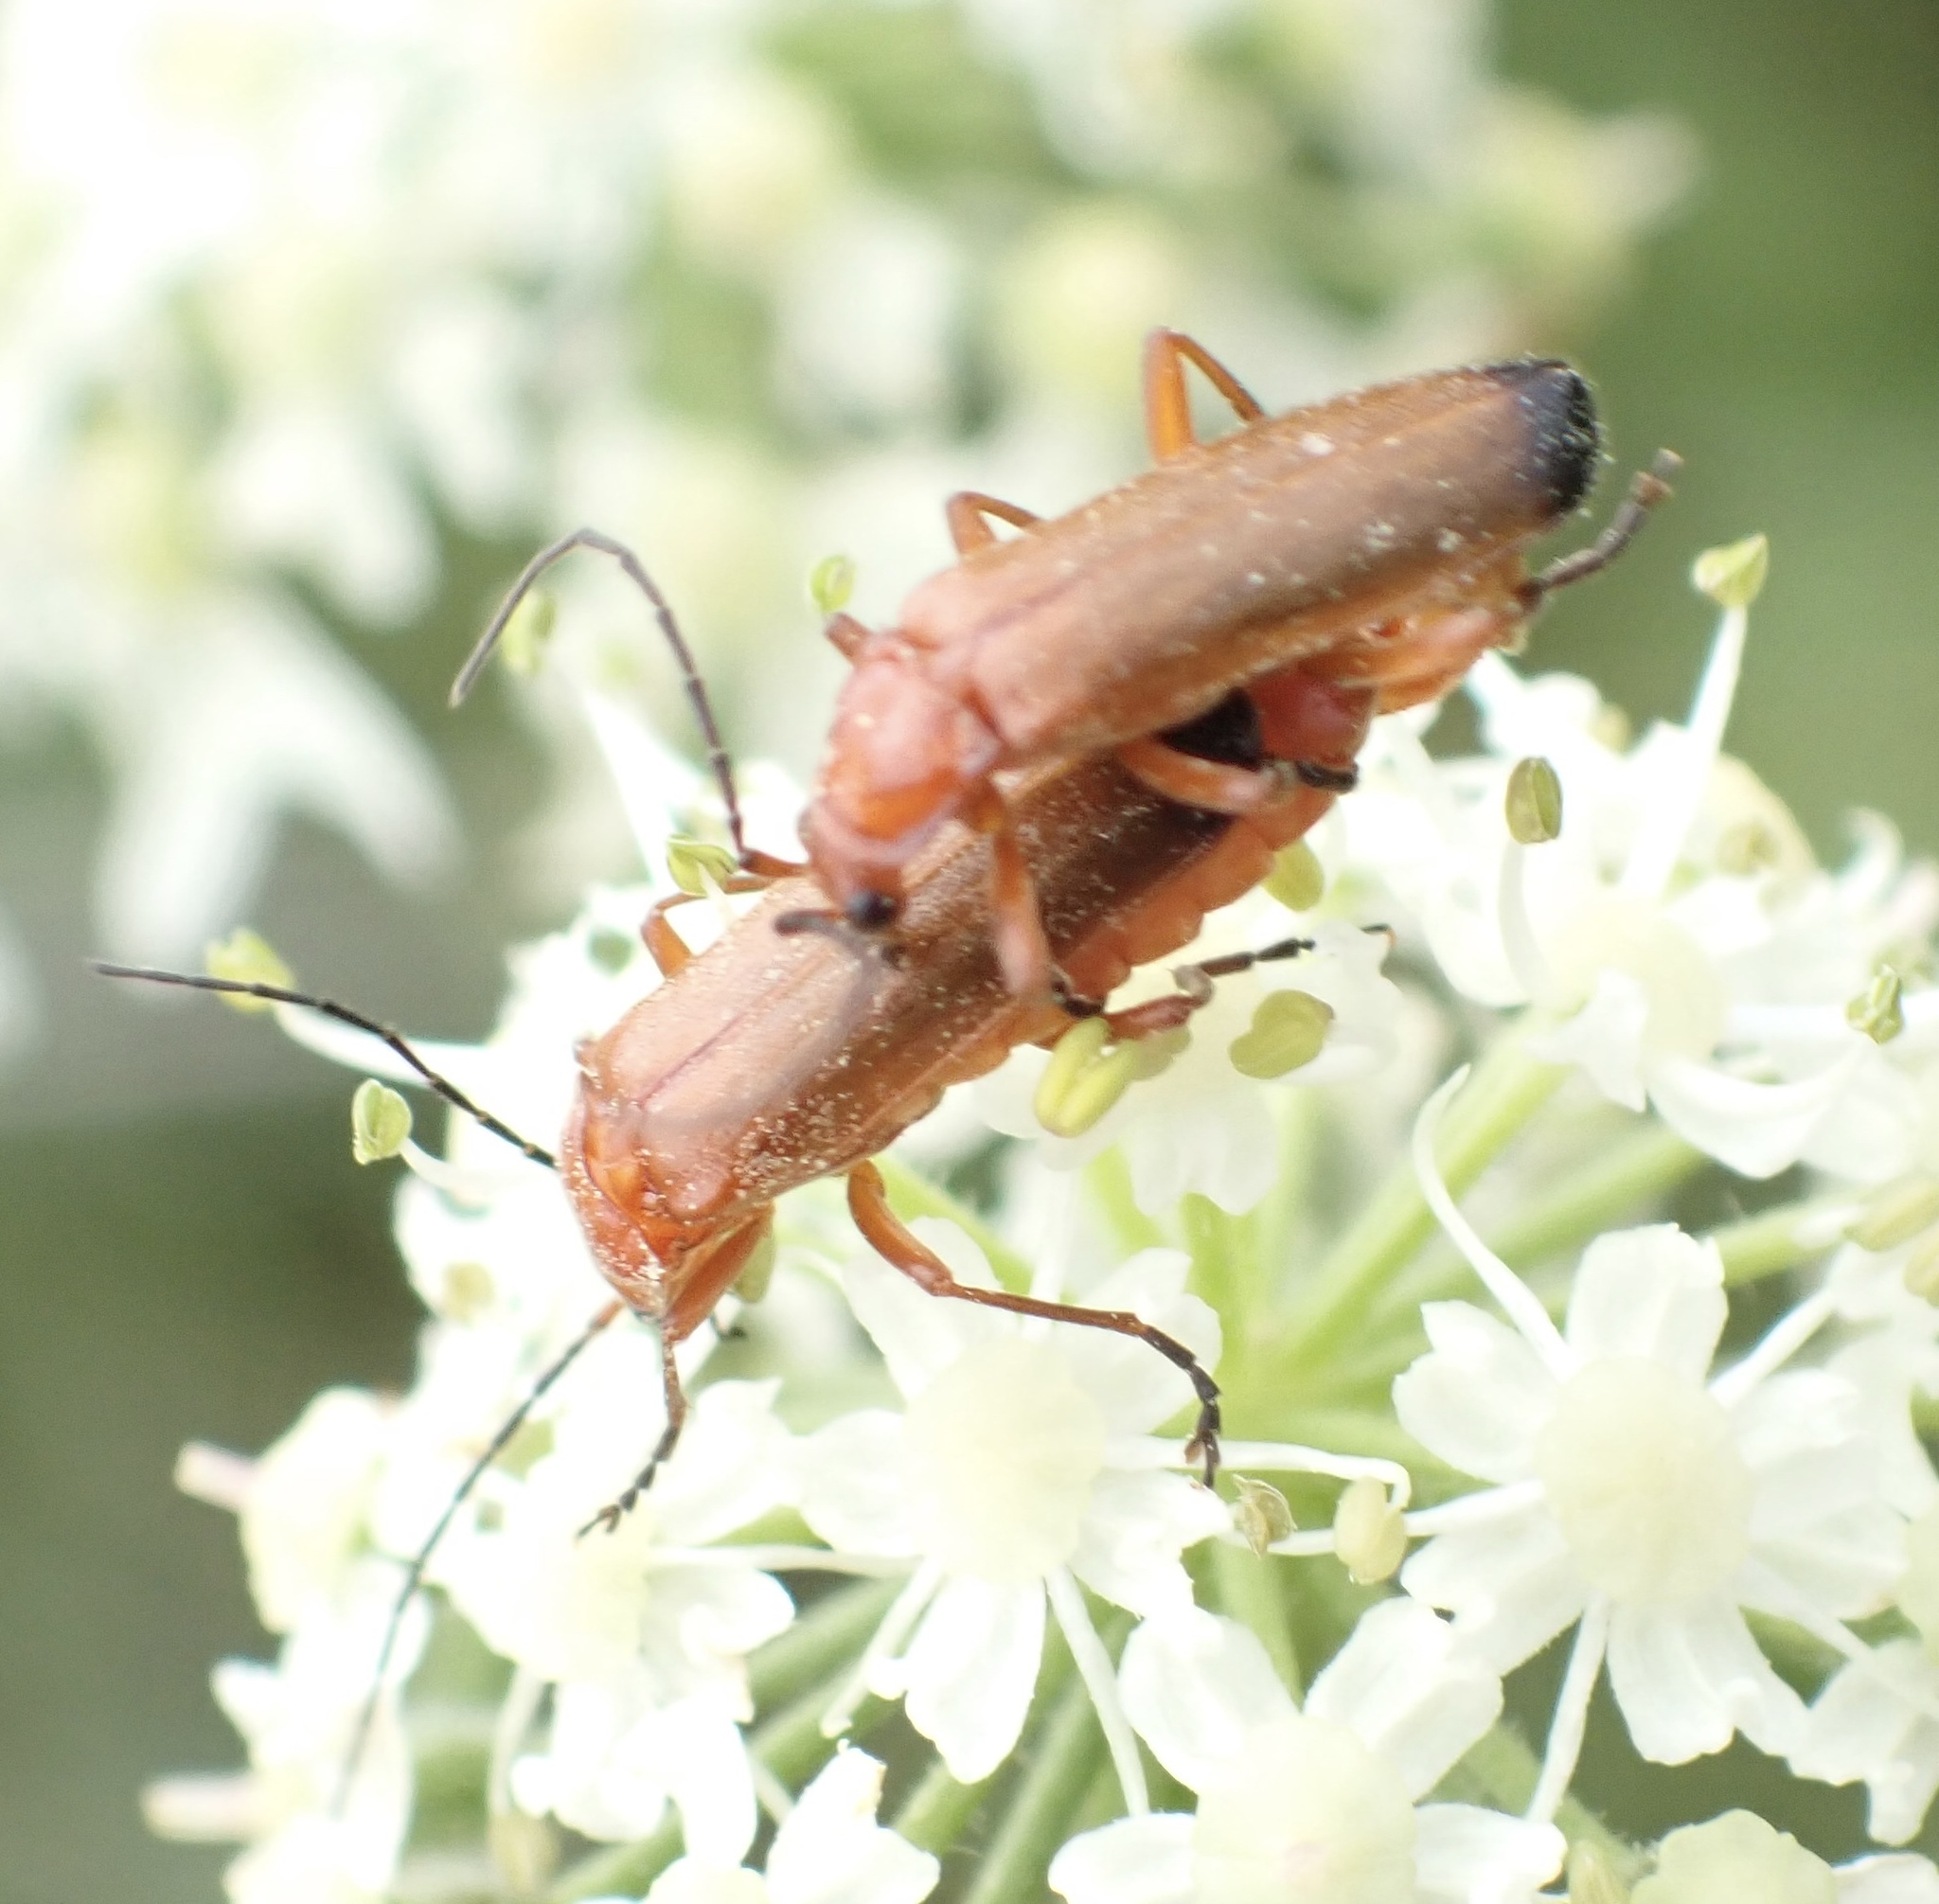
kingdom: Animalia
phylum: Arthropoda
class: Insecta
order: Coleoptera
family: Cantharidae
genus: Rhagonycha
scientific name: Rhagonycha fulva
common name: Common red soldier beetle
